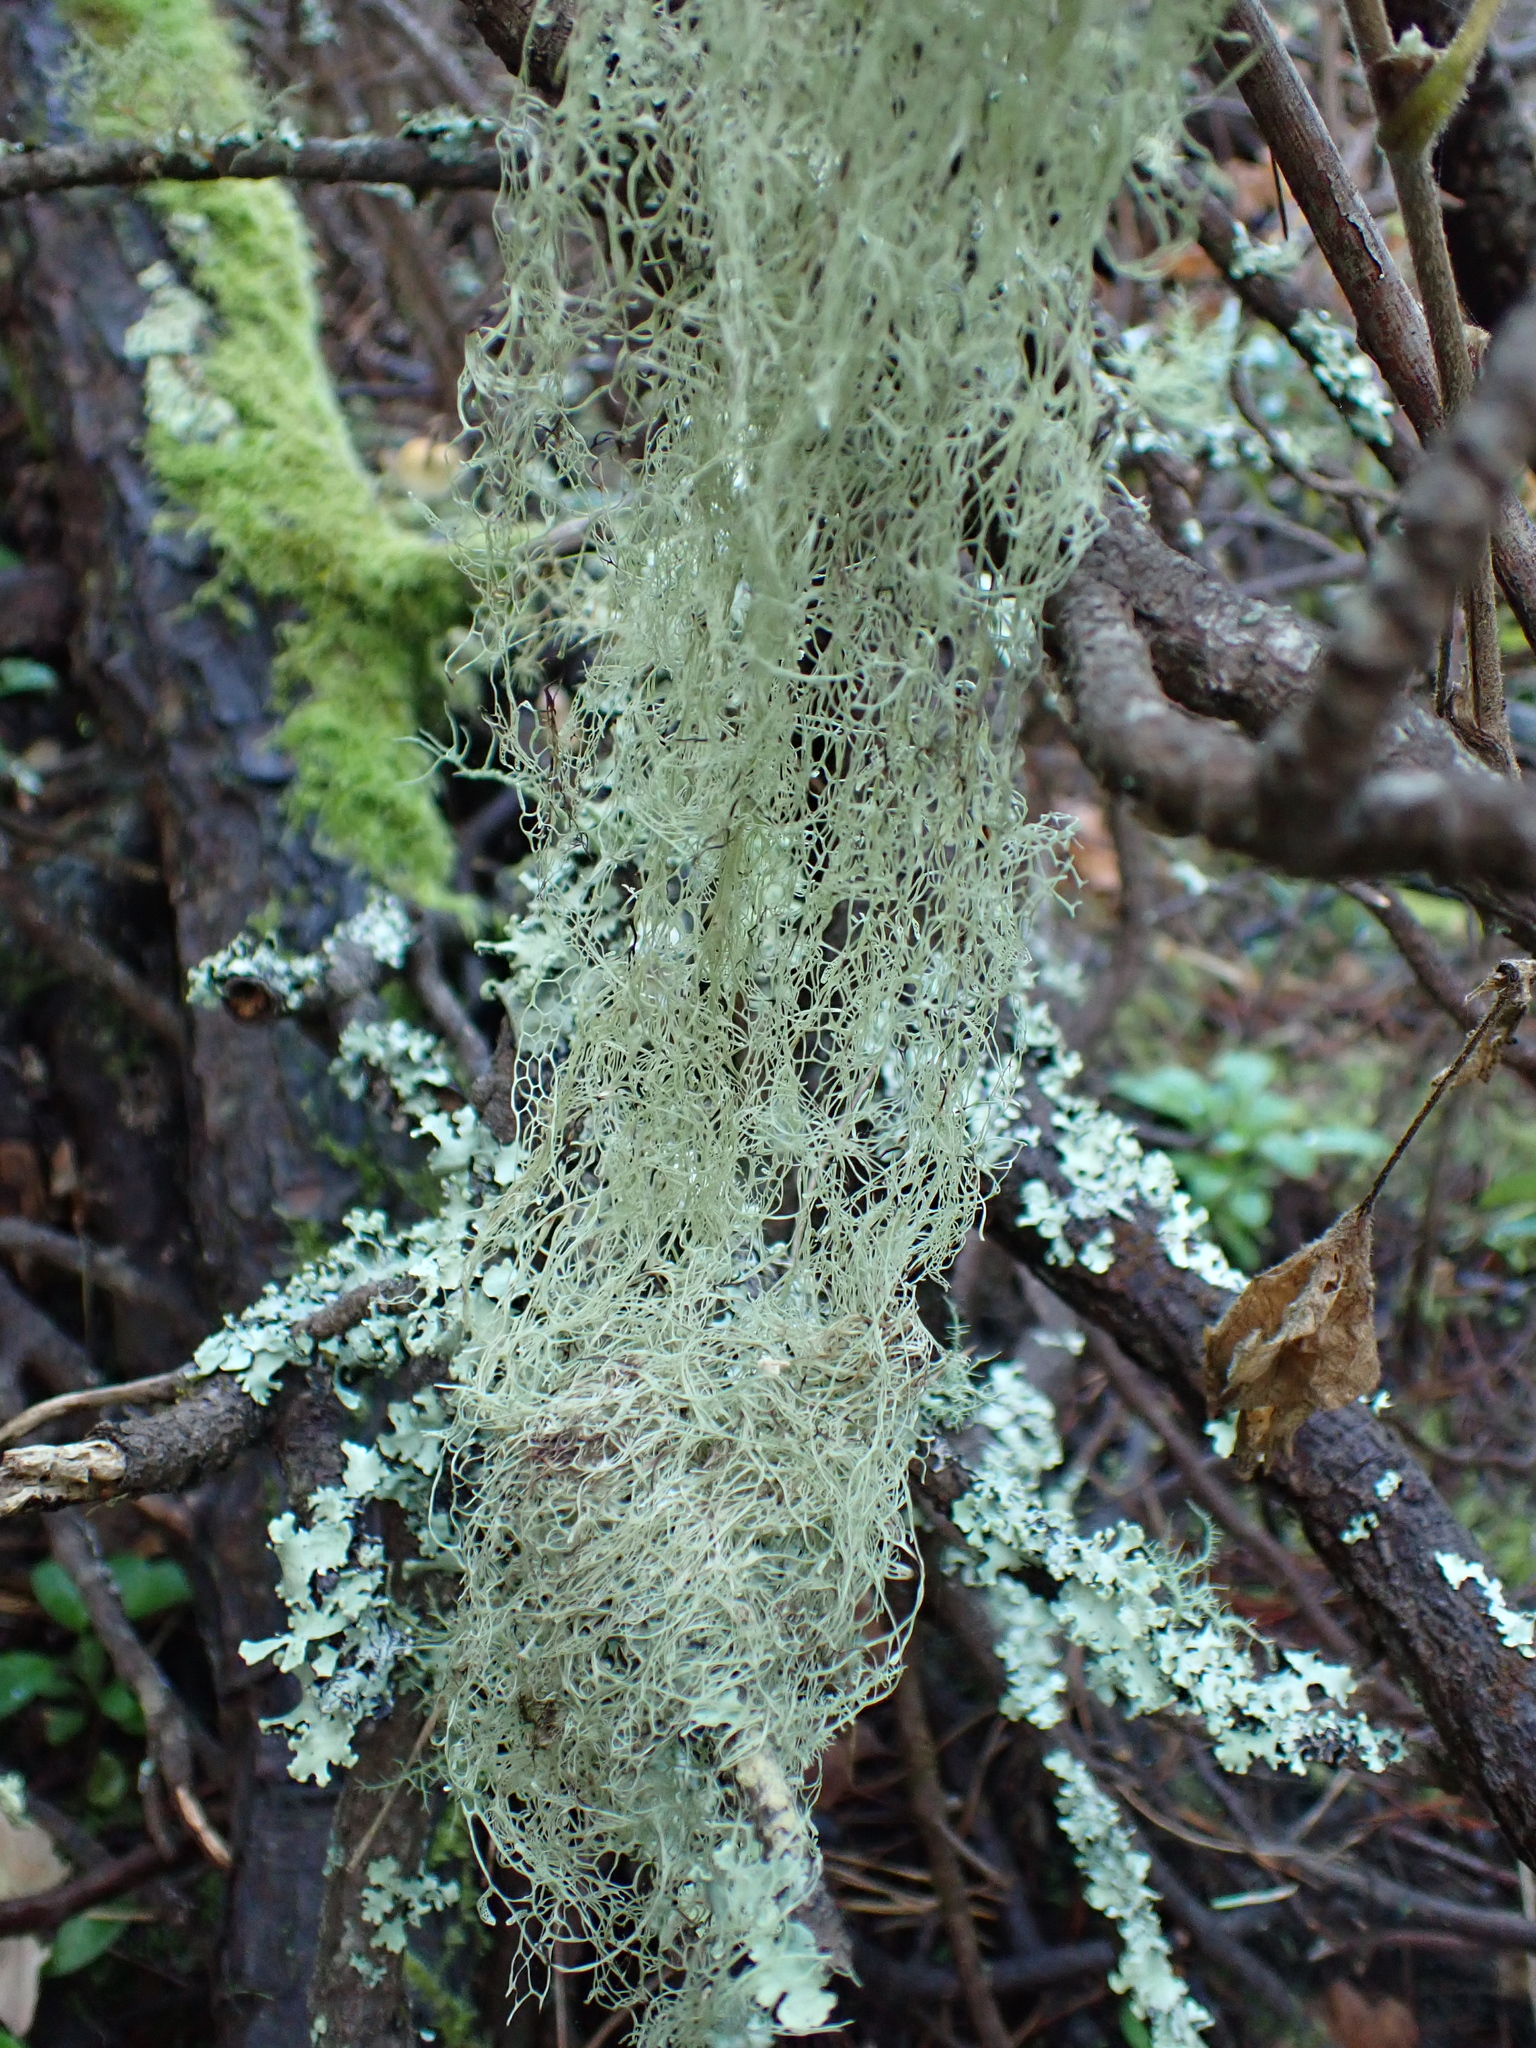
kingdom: Fungi
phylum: Ascomycota
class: Lecanoromycetes
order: Lecanorales
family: Ramalinaceae
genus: Ramalina
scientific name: Ramalina menziesii
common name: Lace lichen
